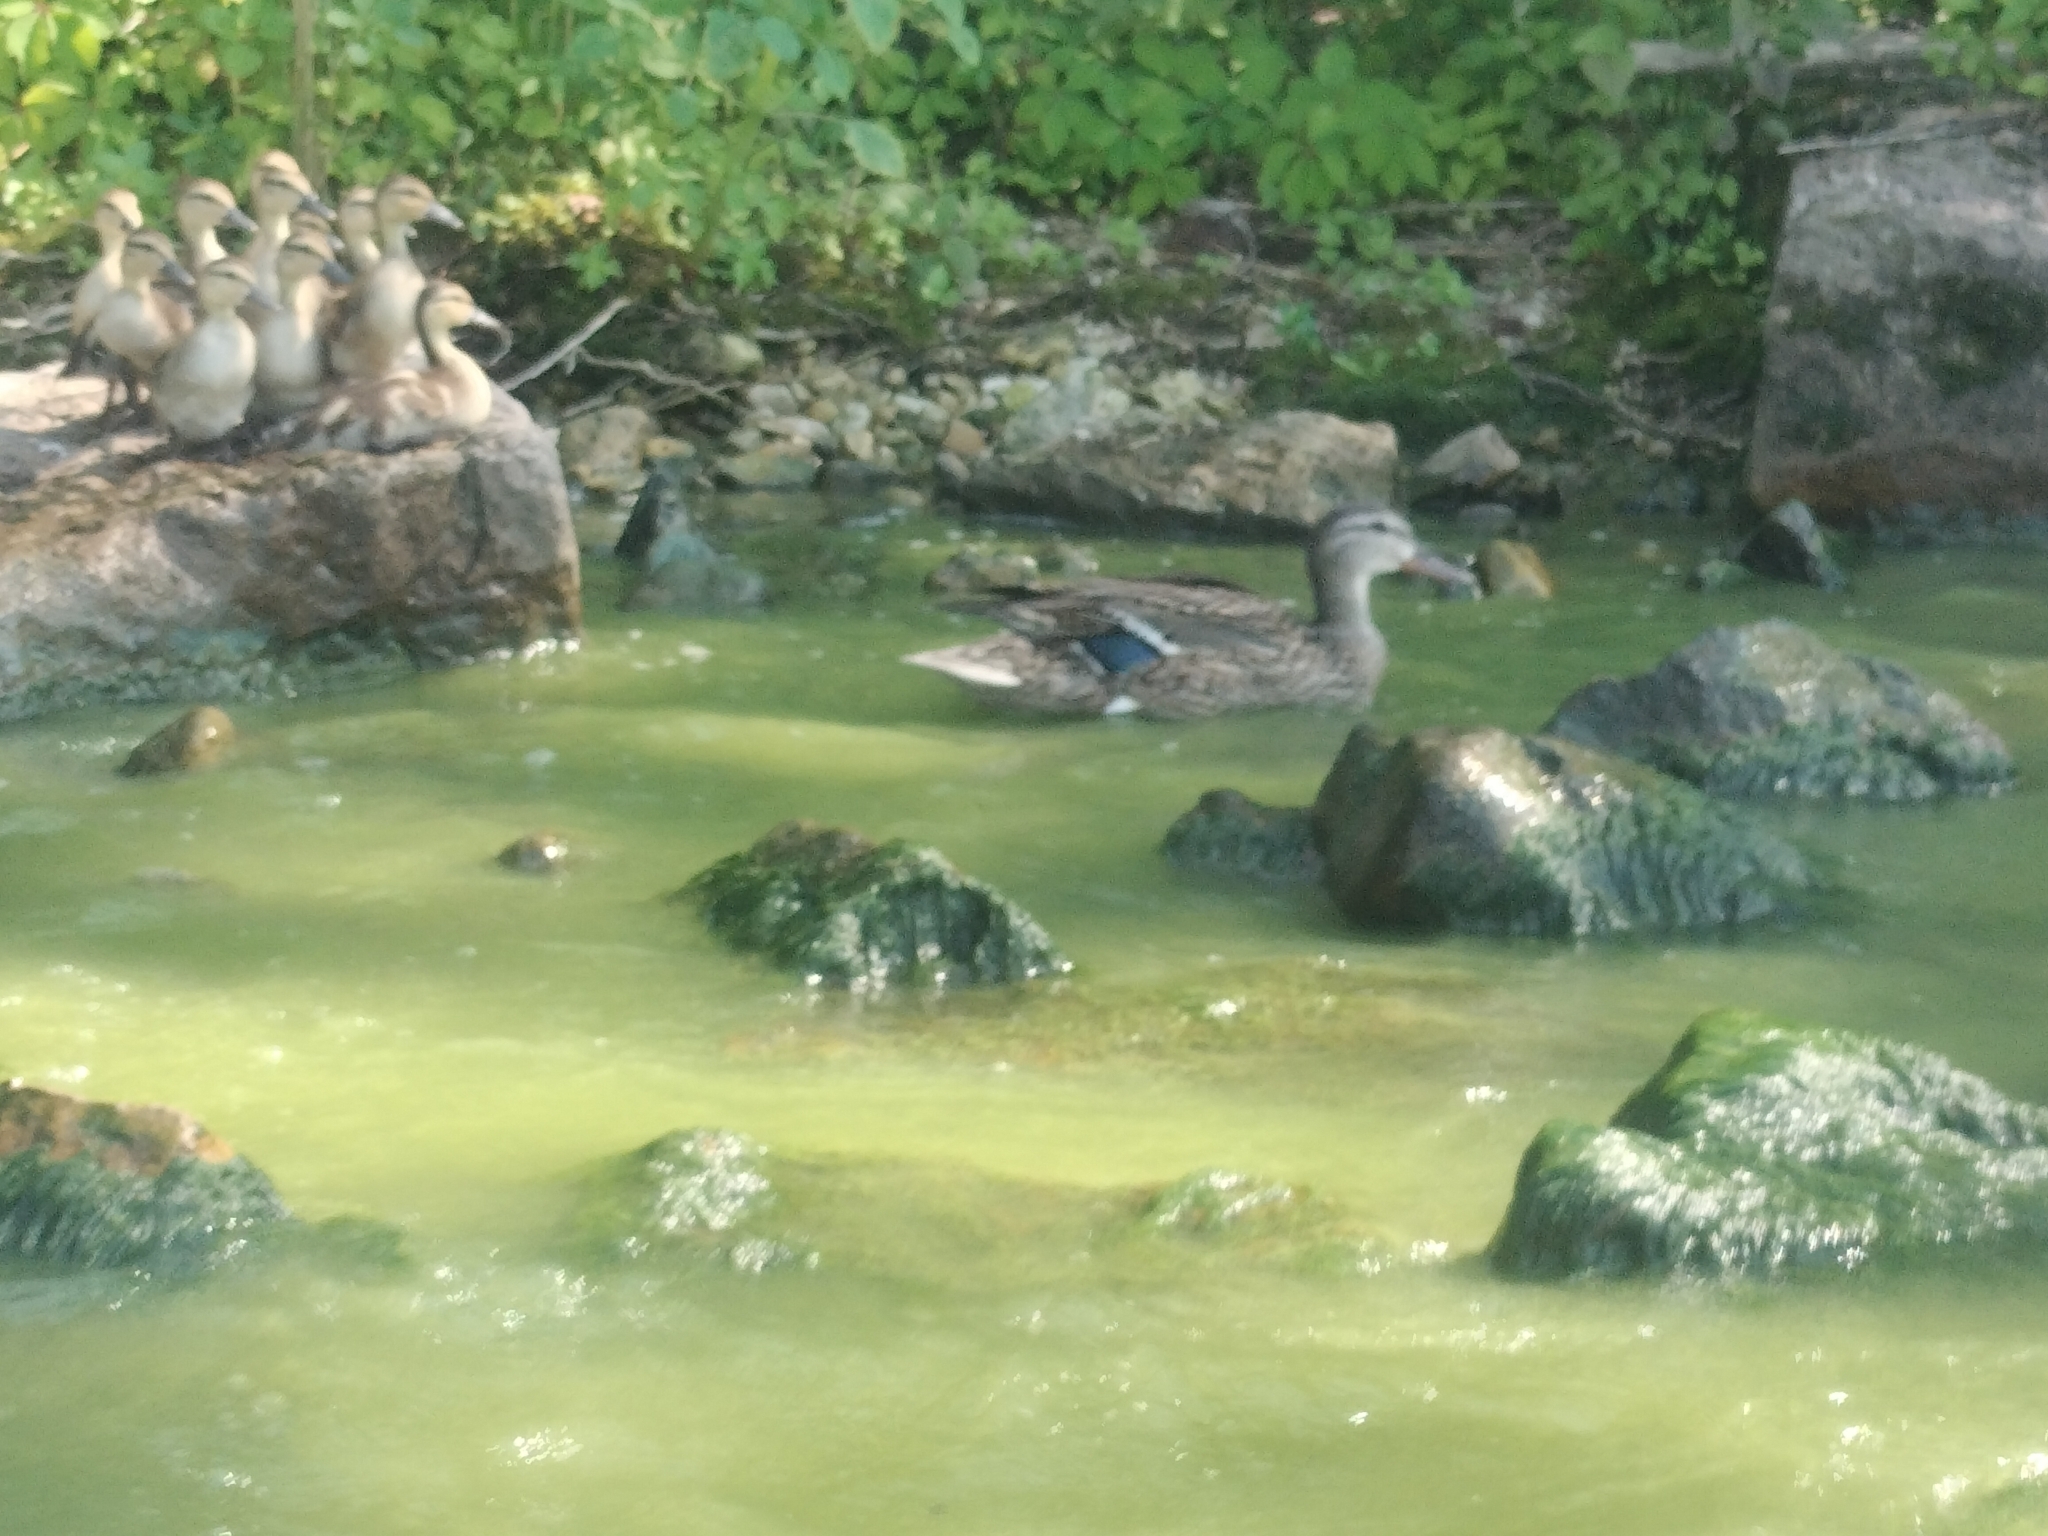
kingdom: Animalia
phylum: Chordata
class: Aves
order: Anseriformes
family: Anatidae
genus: Anas
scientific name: Anas platyrhynchos
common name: Mallard
